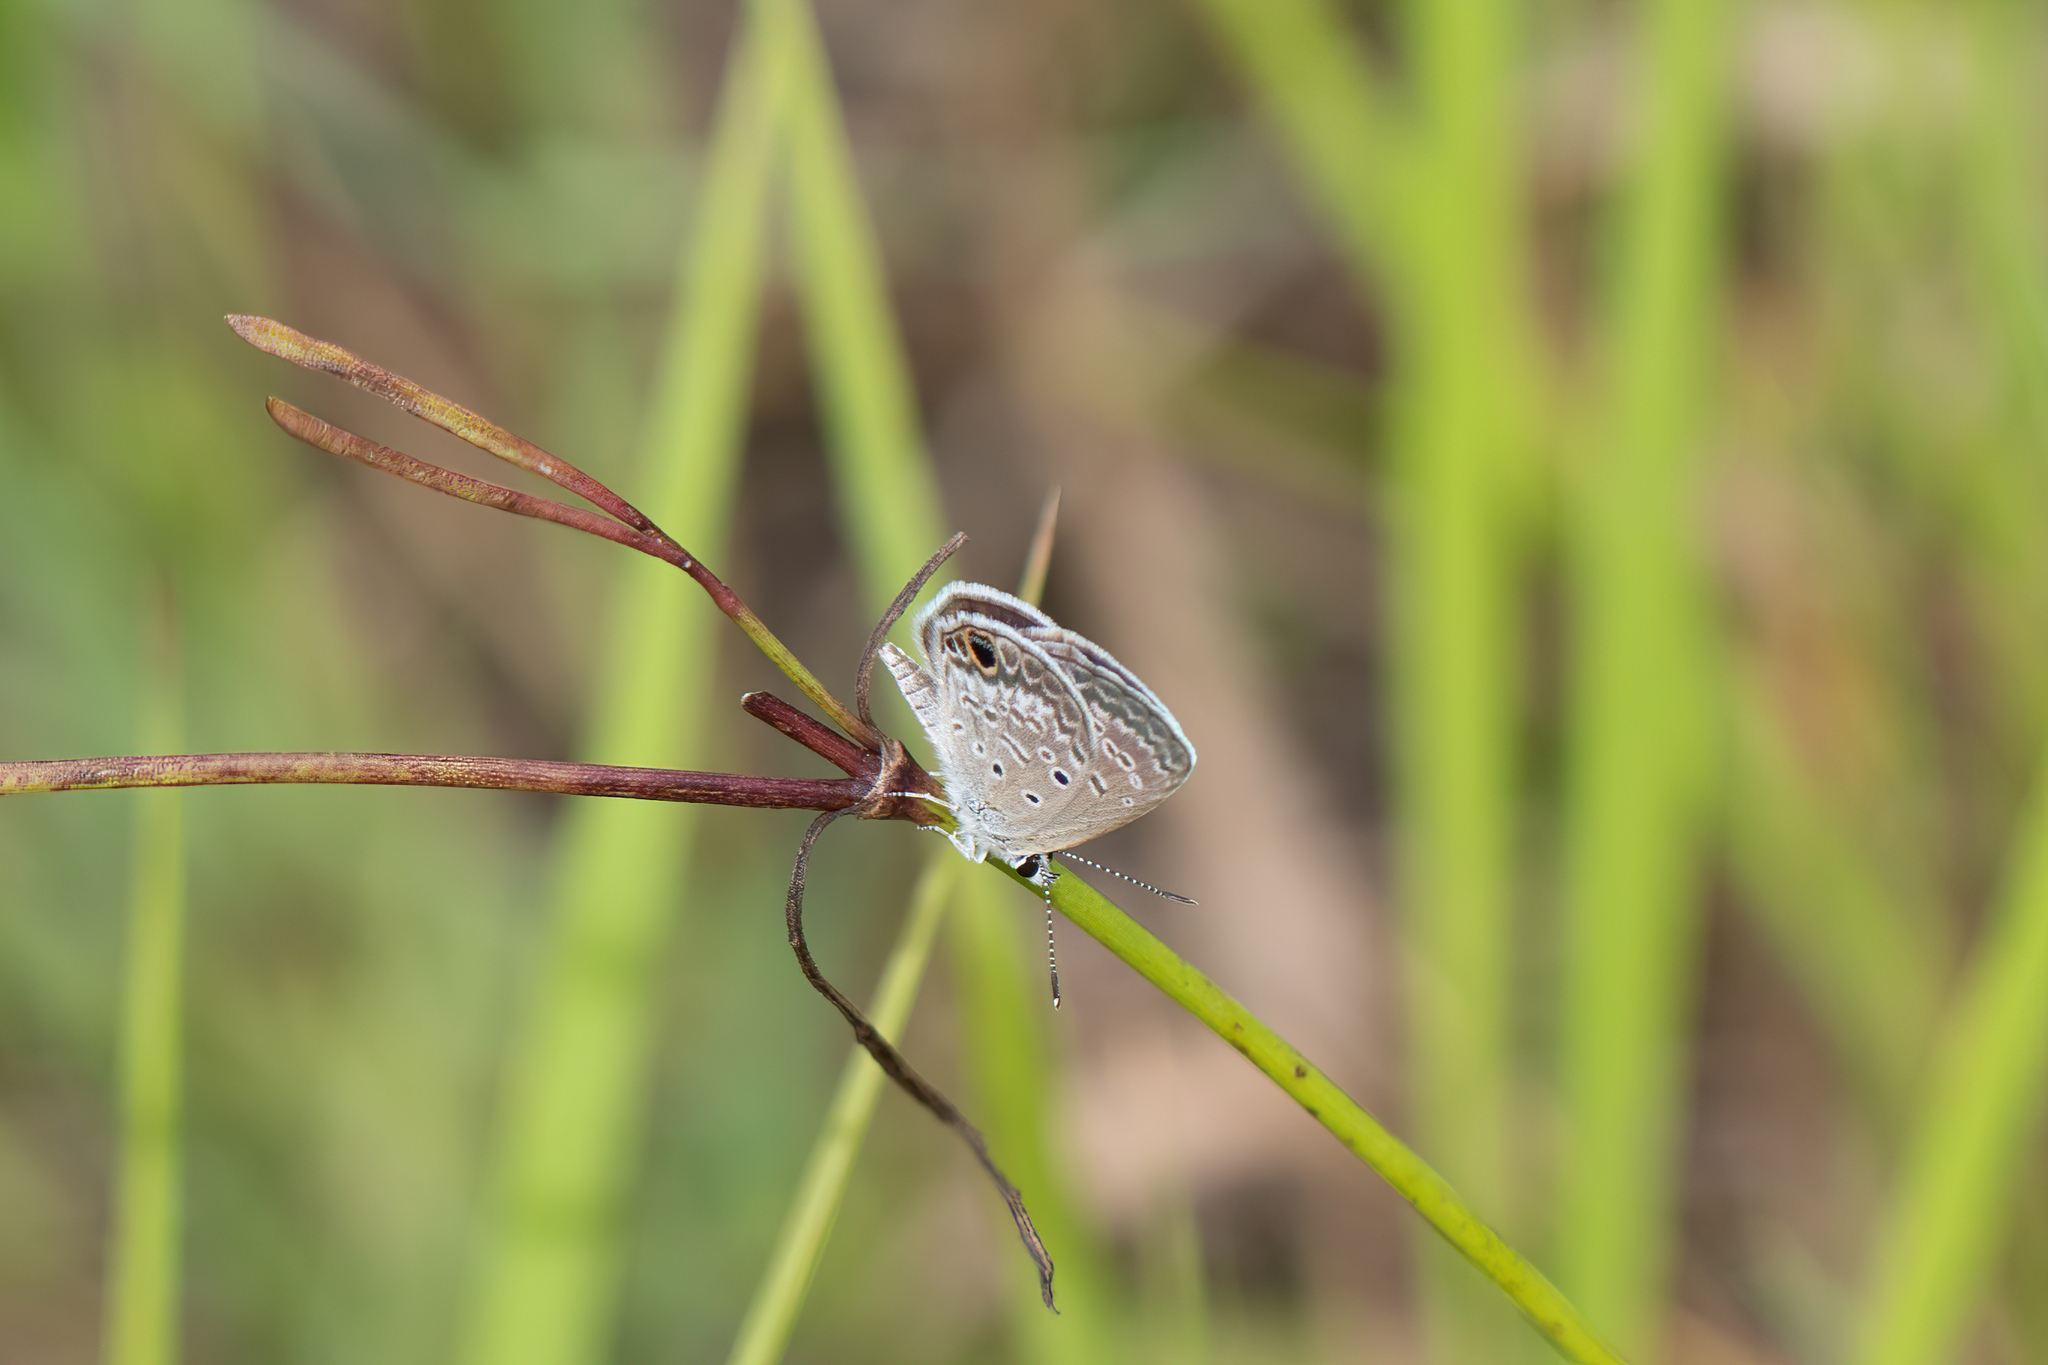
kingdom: Animalia
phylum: Arthropoda
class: Insecta
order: Lepidoptera
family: Lycaenidae
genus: Hemiargus
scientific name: Hemiargus ceraunus
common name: Ceraunus blue
